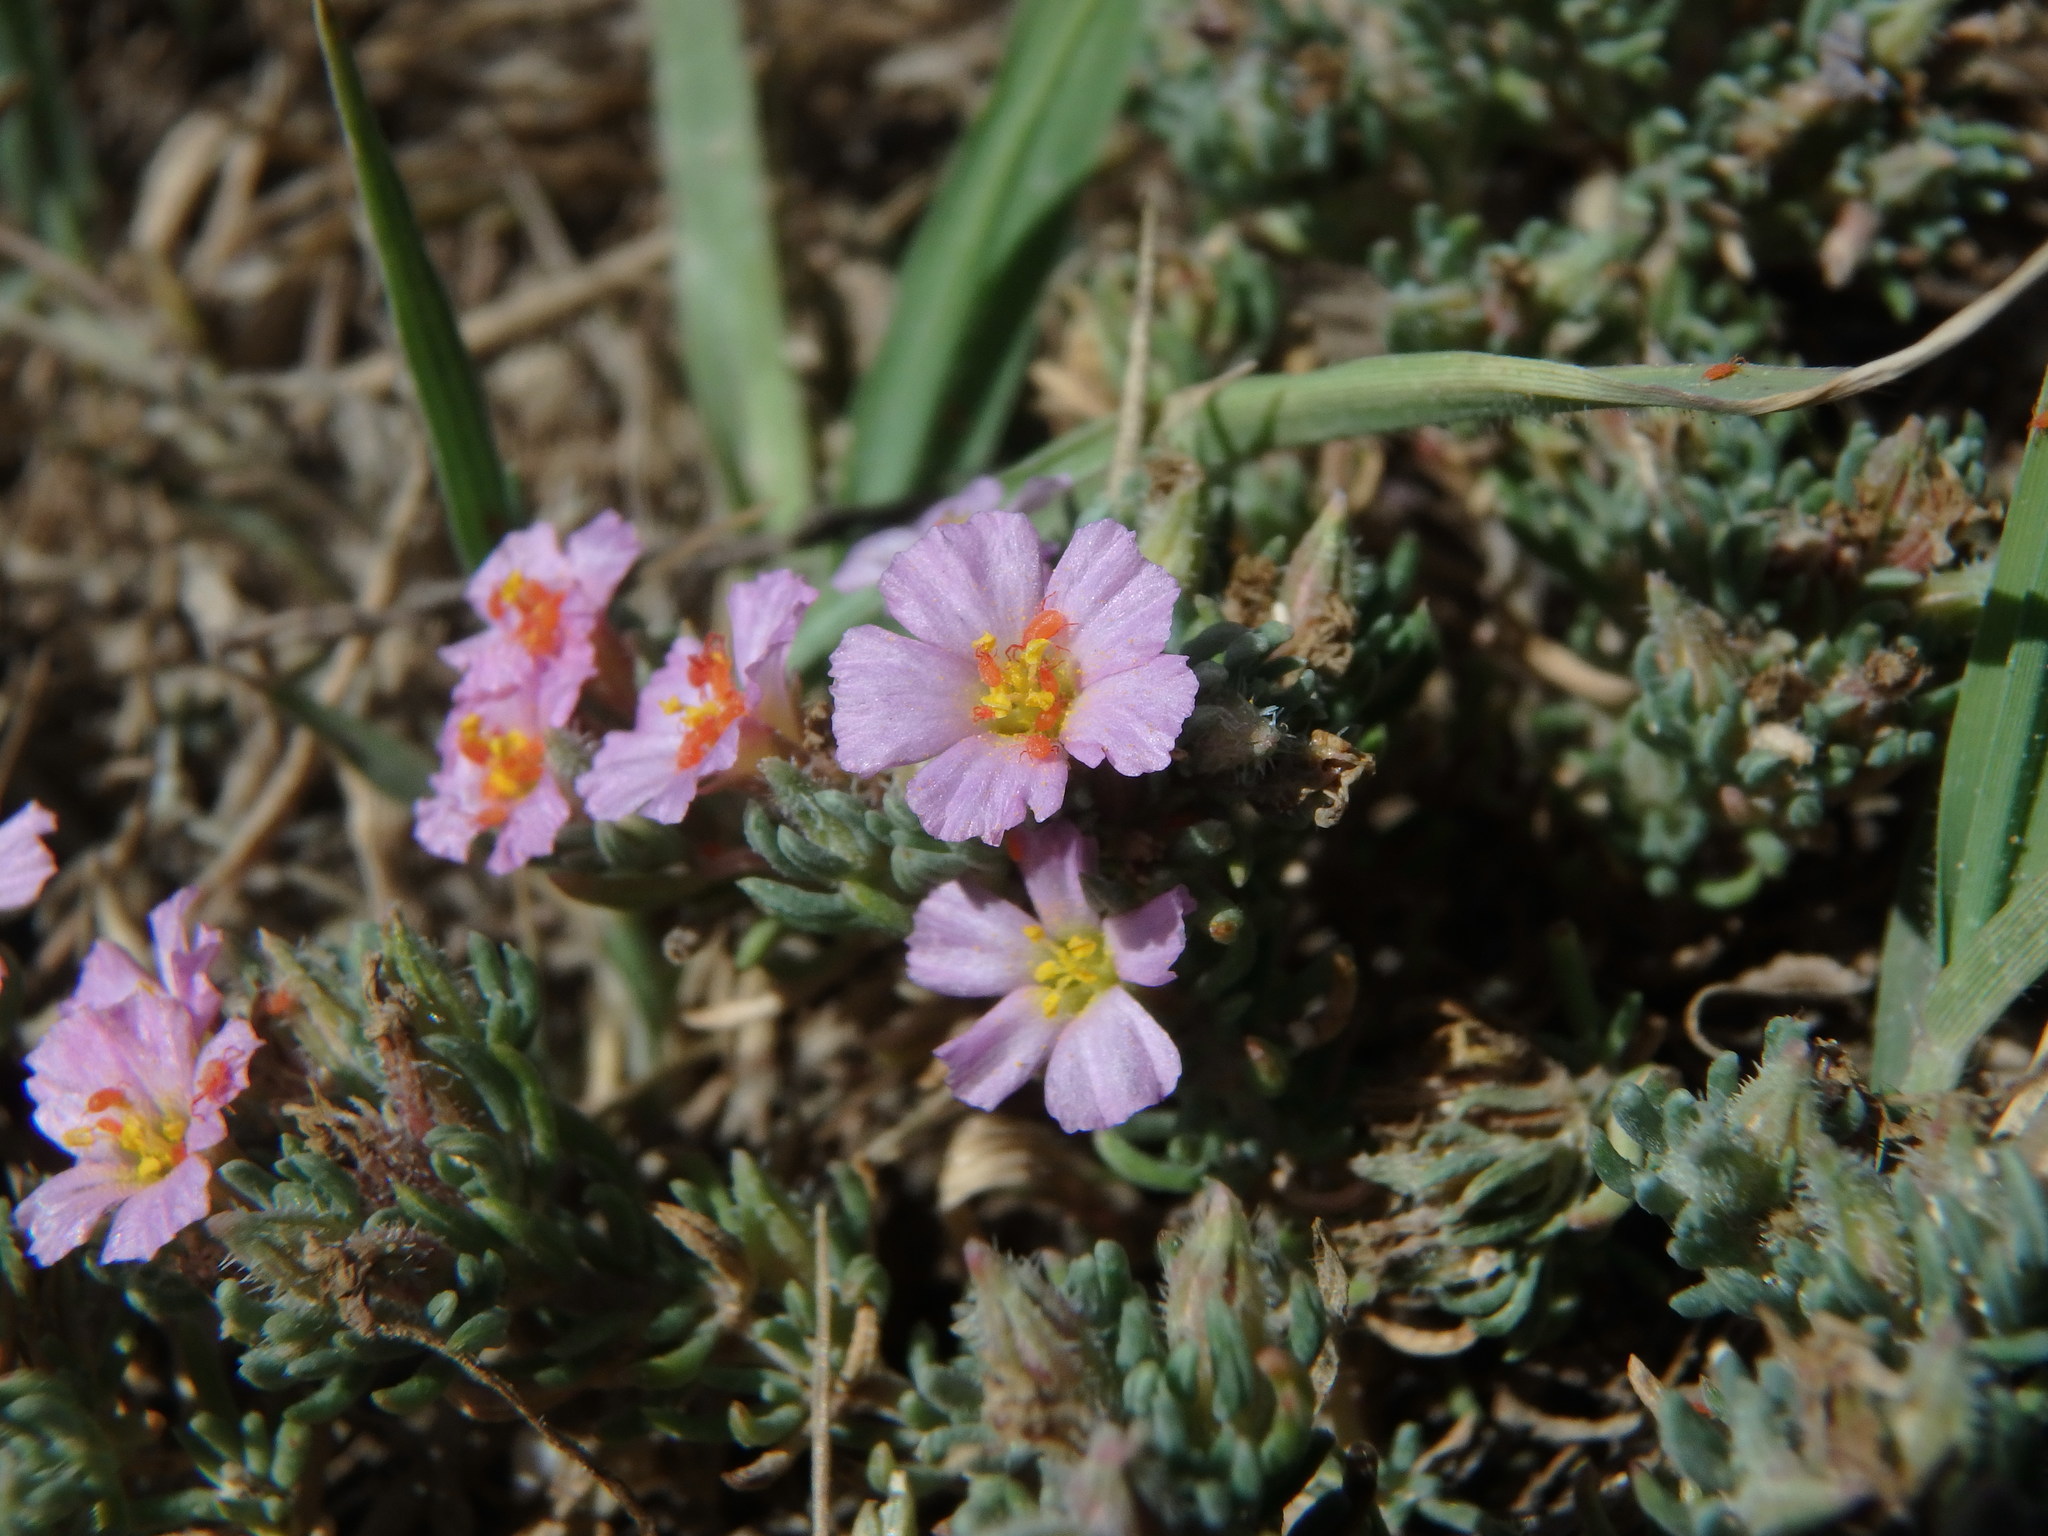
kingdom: Plantae
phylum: Tracheophyta
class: Magnoliopsida
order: Caryophyllales
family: Frankeniaceae
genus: Frankenia
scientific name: Frankenia hirsuta
